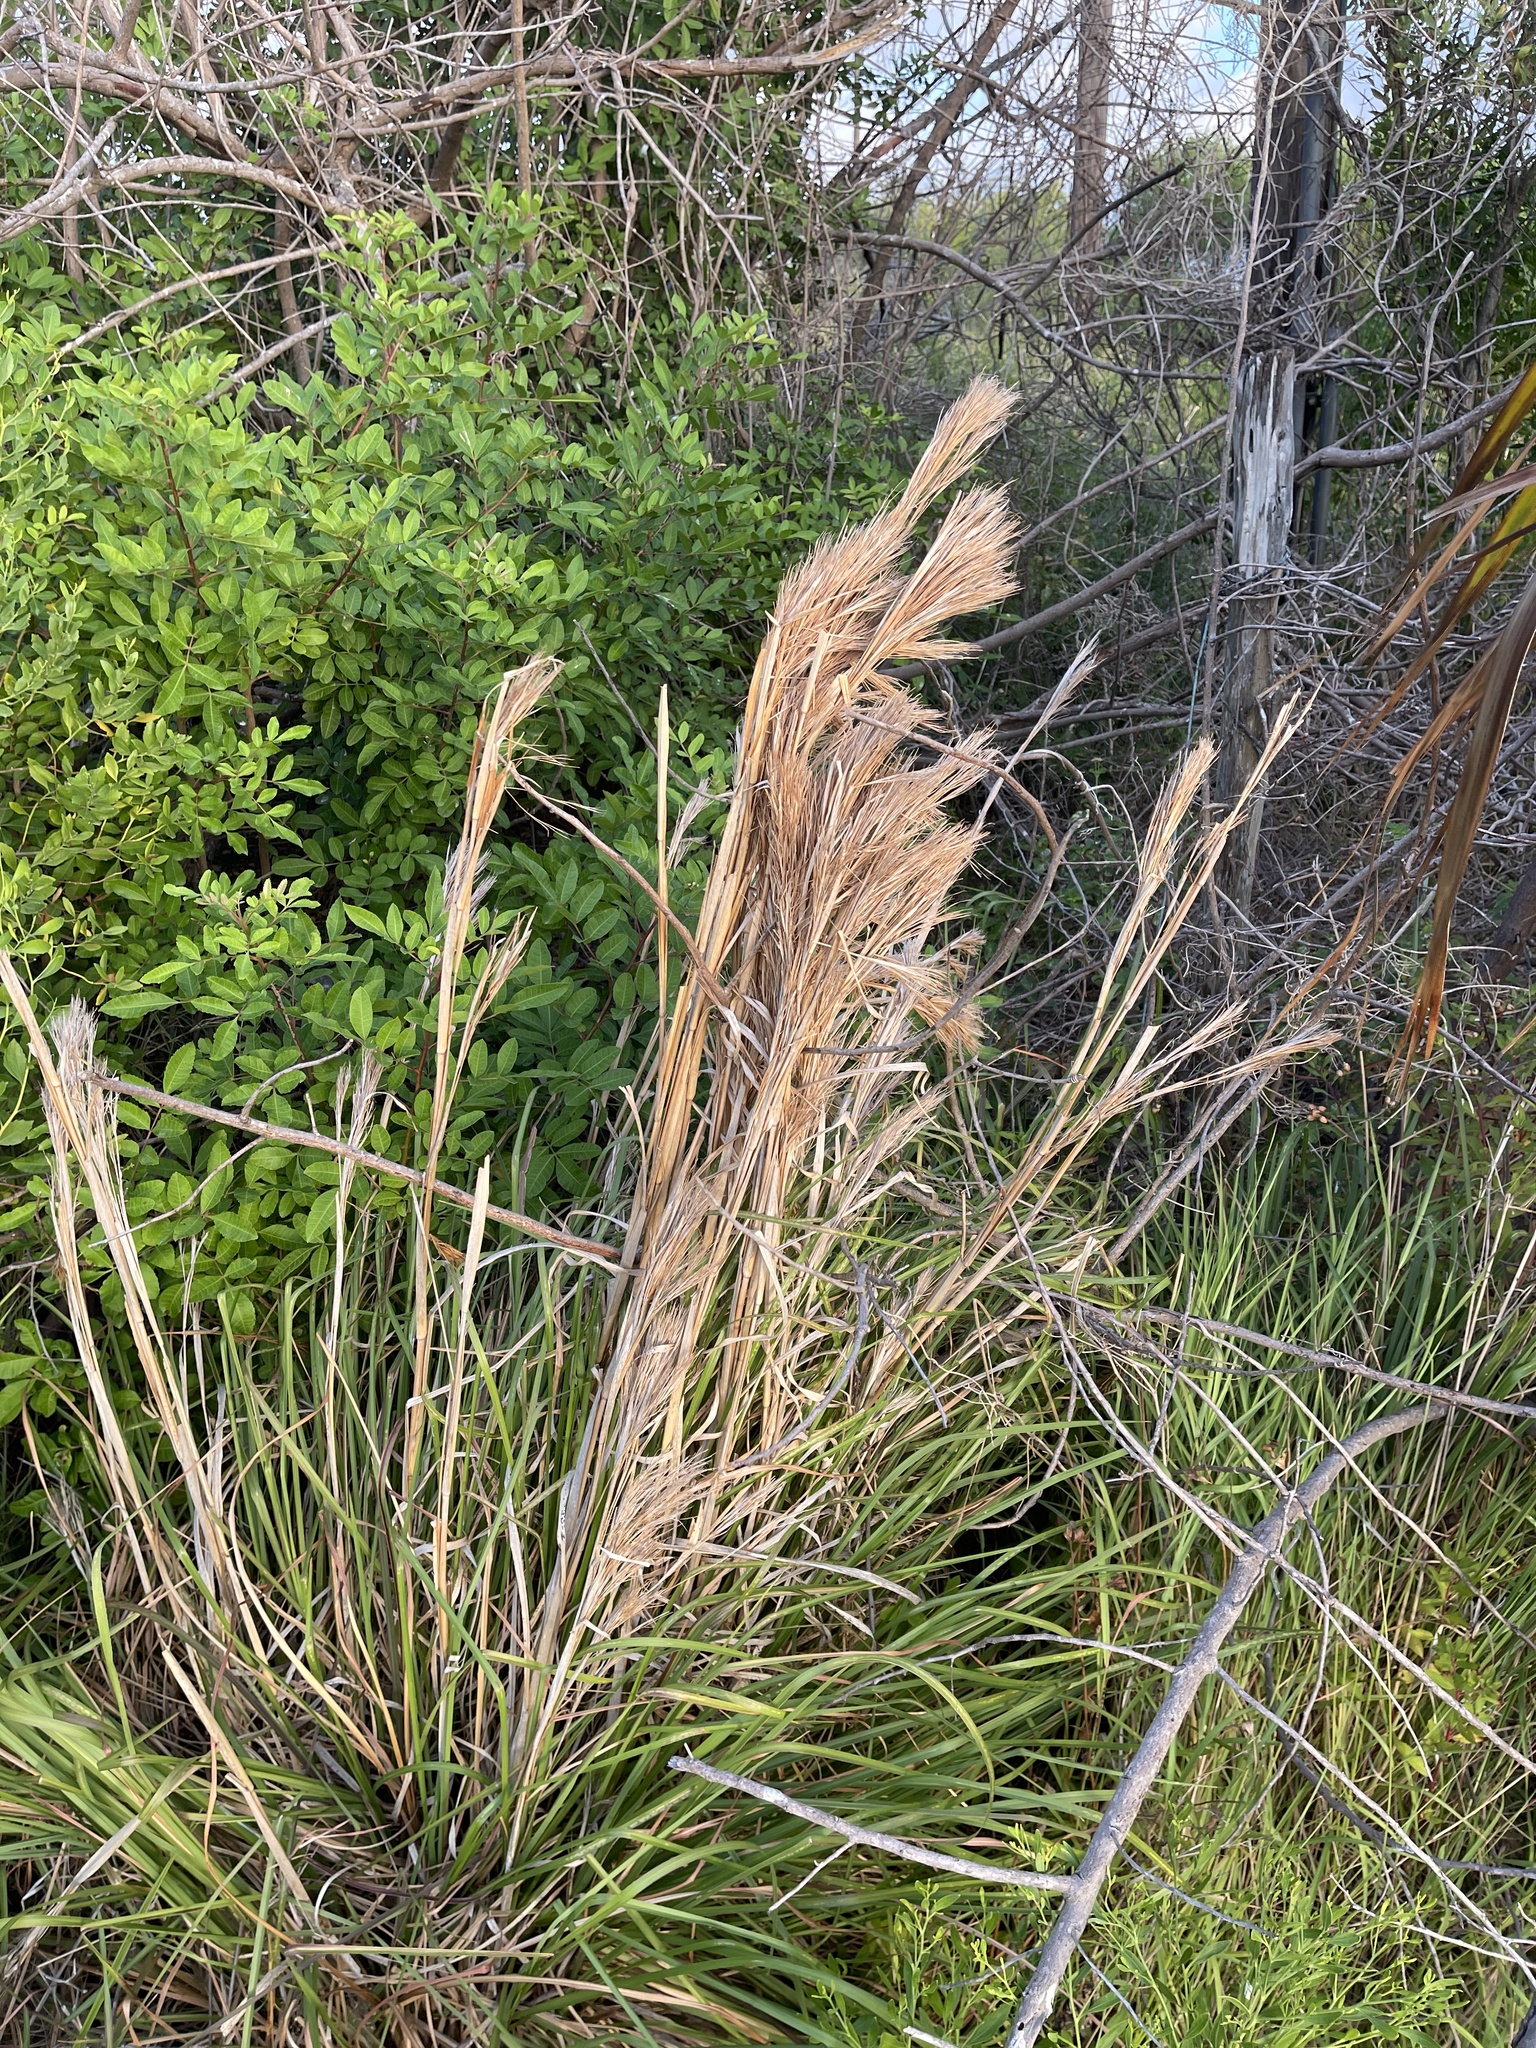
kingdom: Plantae
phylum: Tracheophyta
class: Liliopsida
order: Poales
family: Poaceae
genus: Andropogon
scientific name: Andropogon tenuispatheus
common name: Bushy bluestem
